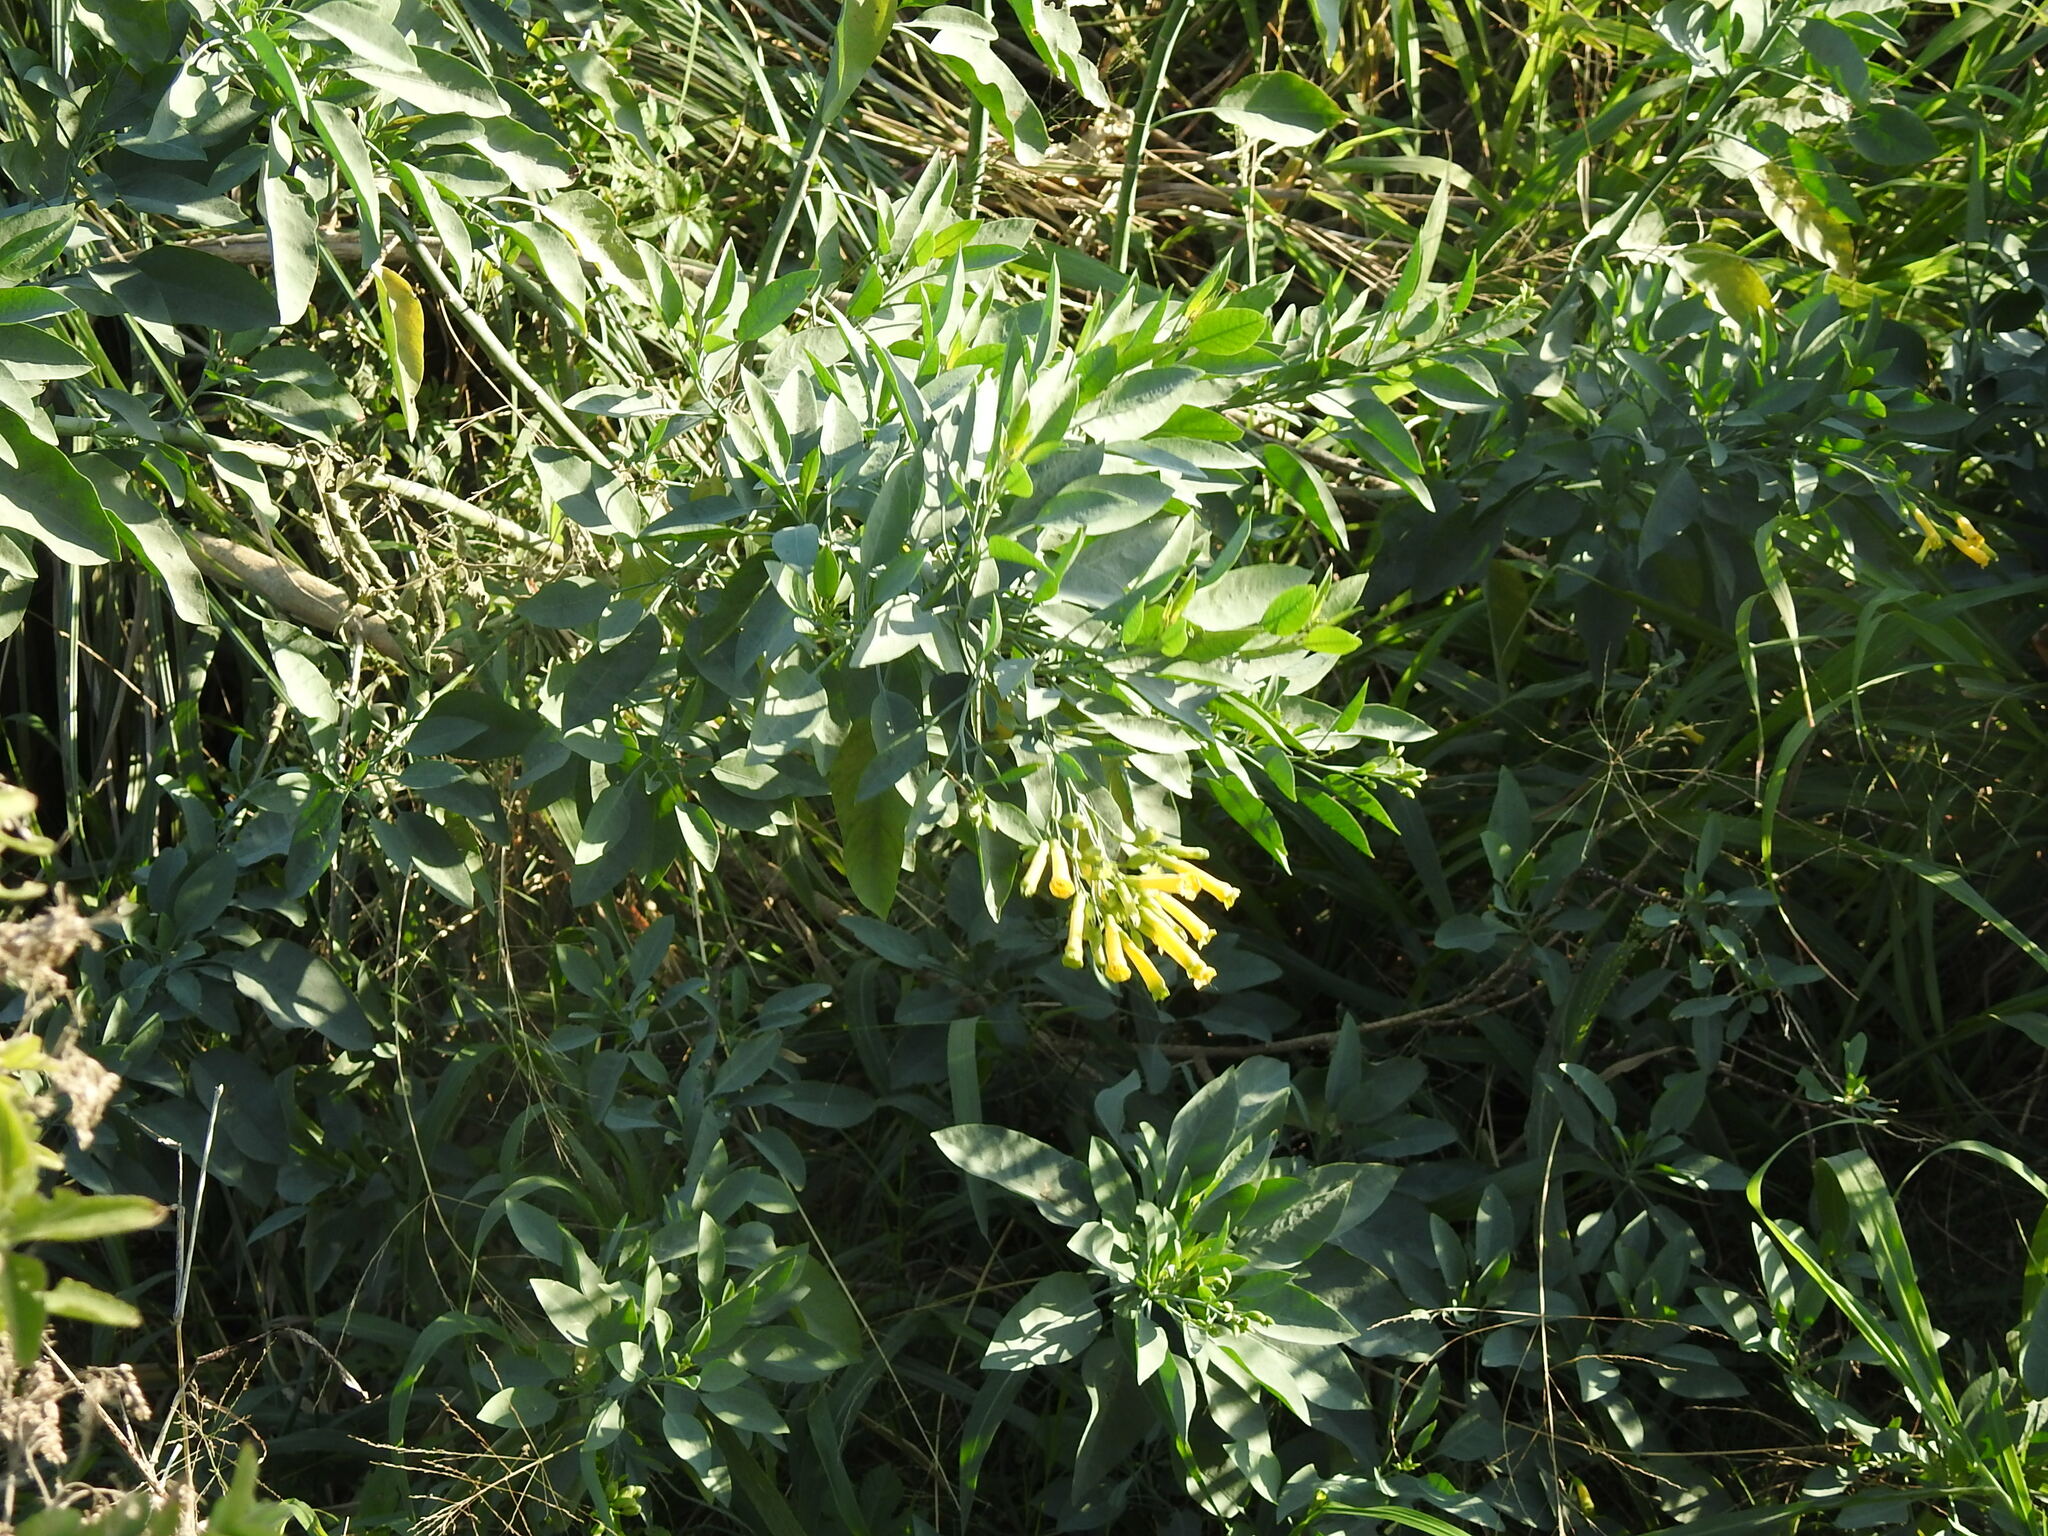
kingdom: Plantae
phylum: Tracheophyta
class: Magnoliopsida
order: Solanales
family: Solanaceae
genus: Nicotiana
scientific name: Nicotiana glauca
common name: Tree tobacco
